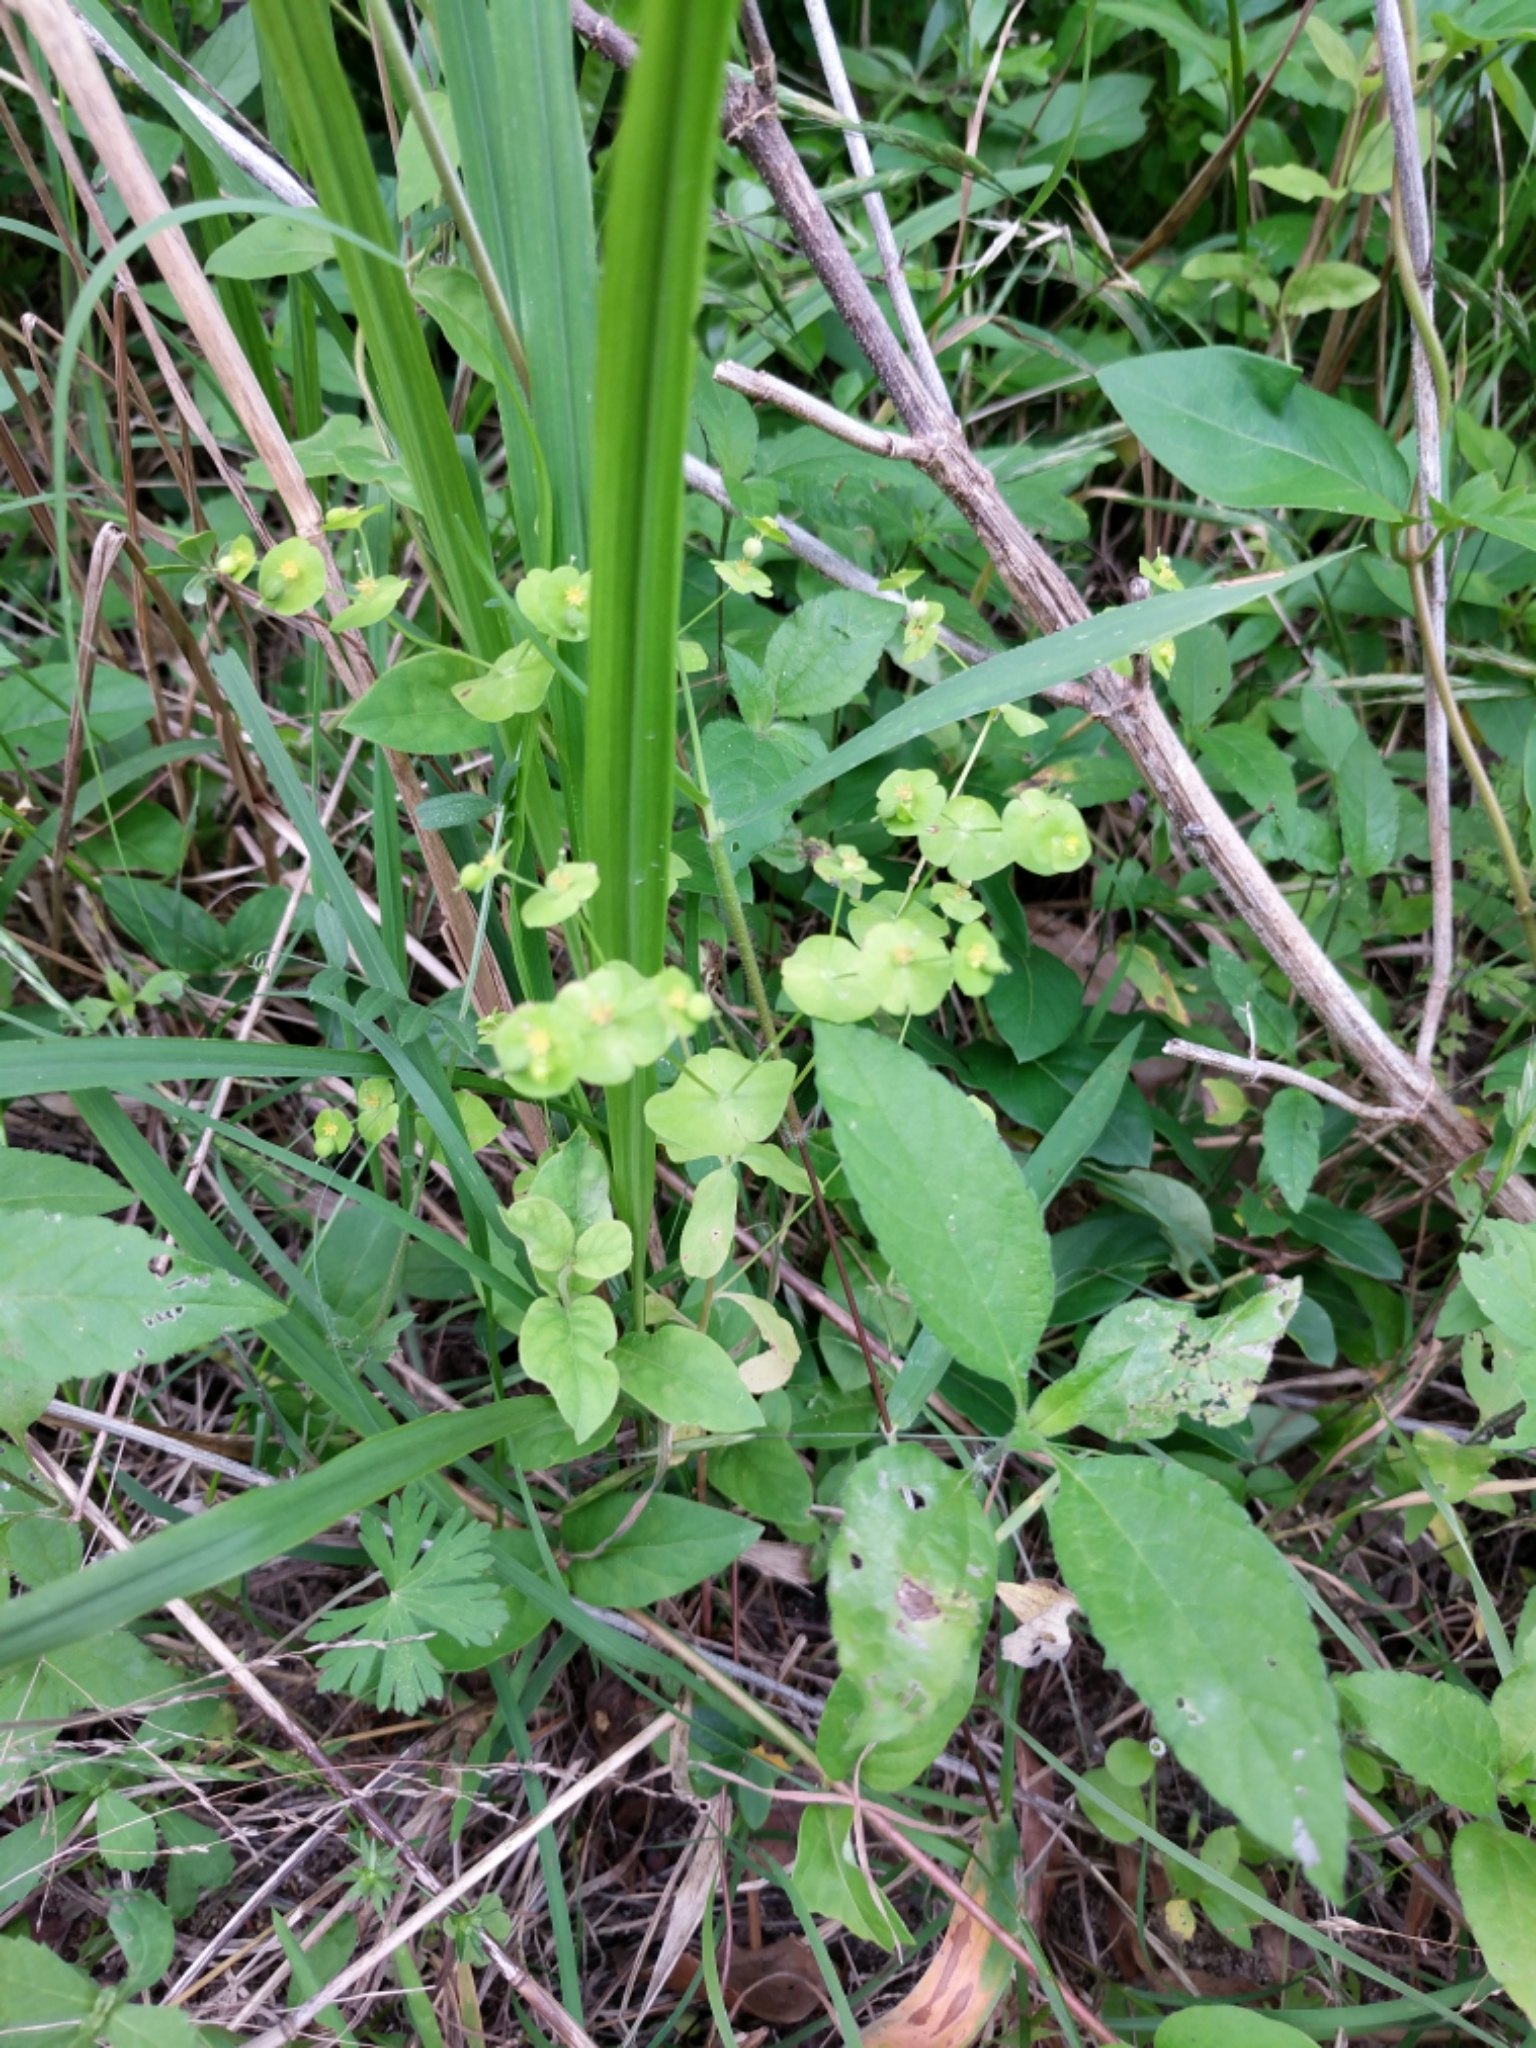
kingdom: Plantae
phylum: Tracheophyta
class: Magnoliopsida
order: Malpighiales
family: Euphorbiaceae
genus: Euphorbia
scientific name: Euphorbia roemeriana
